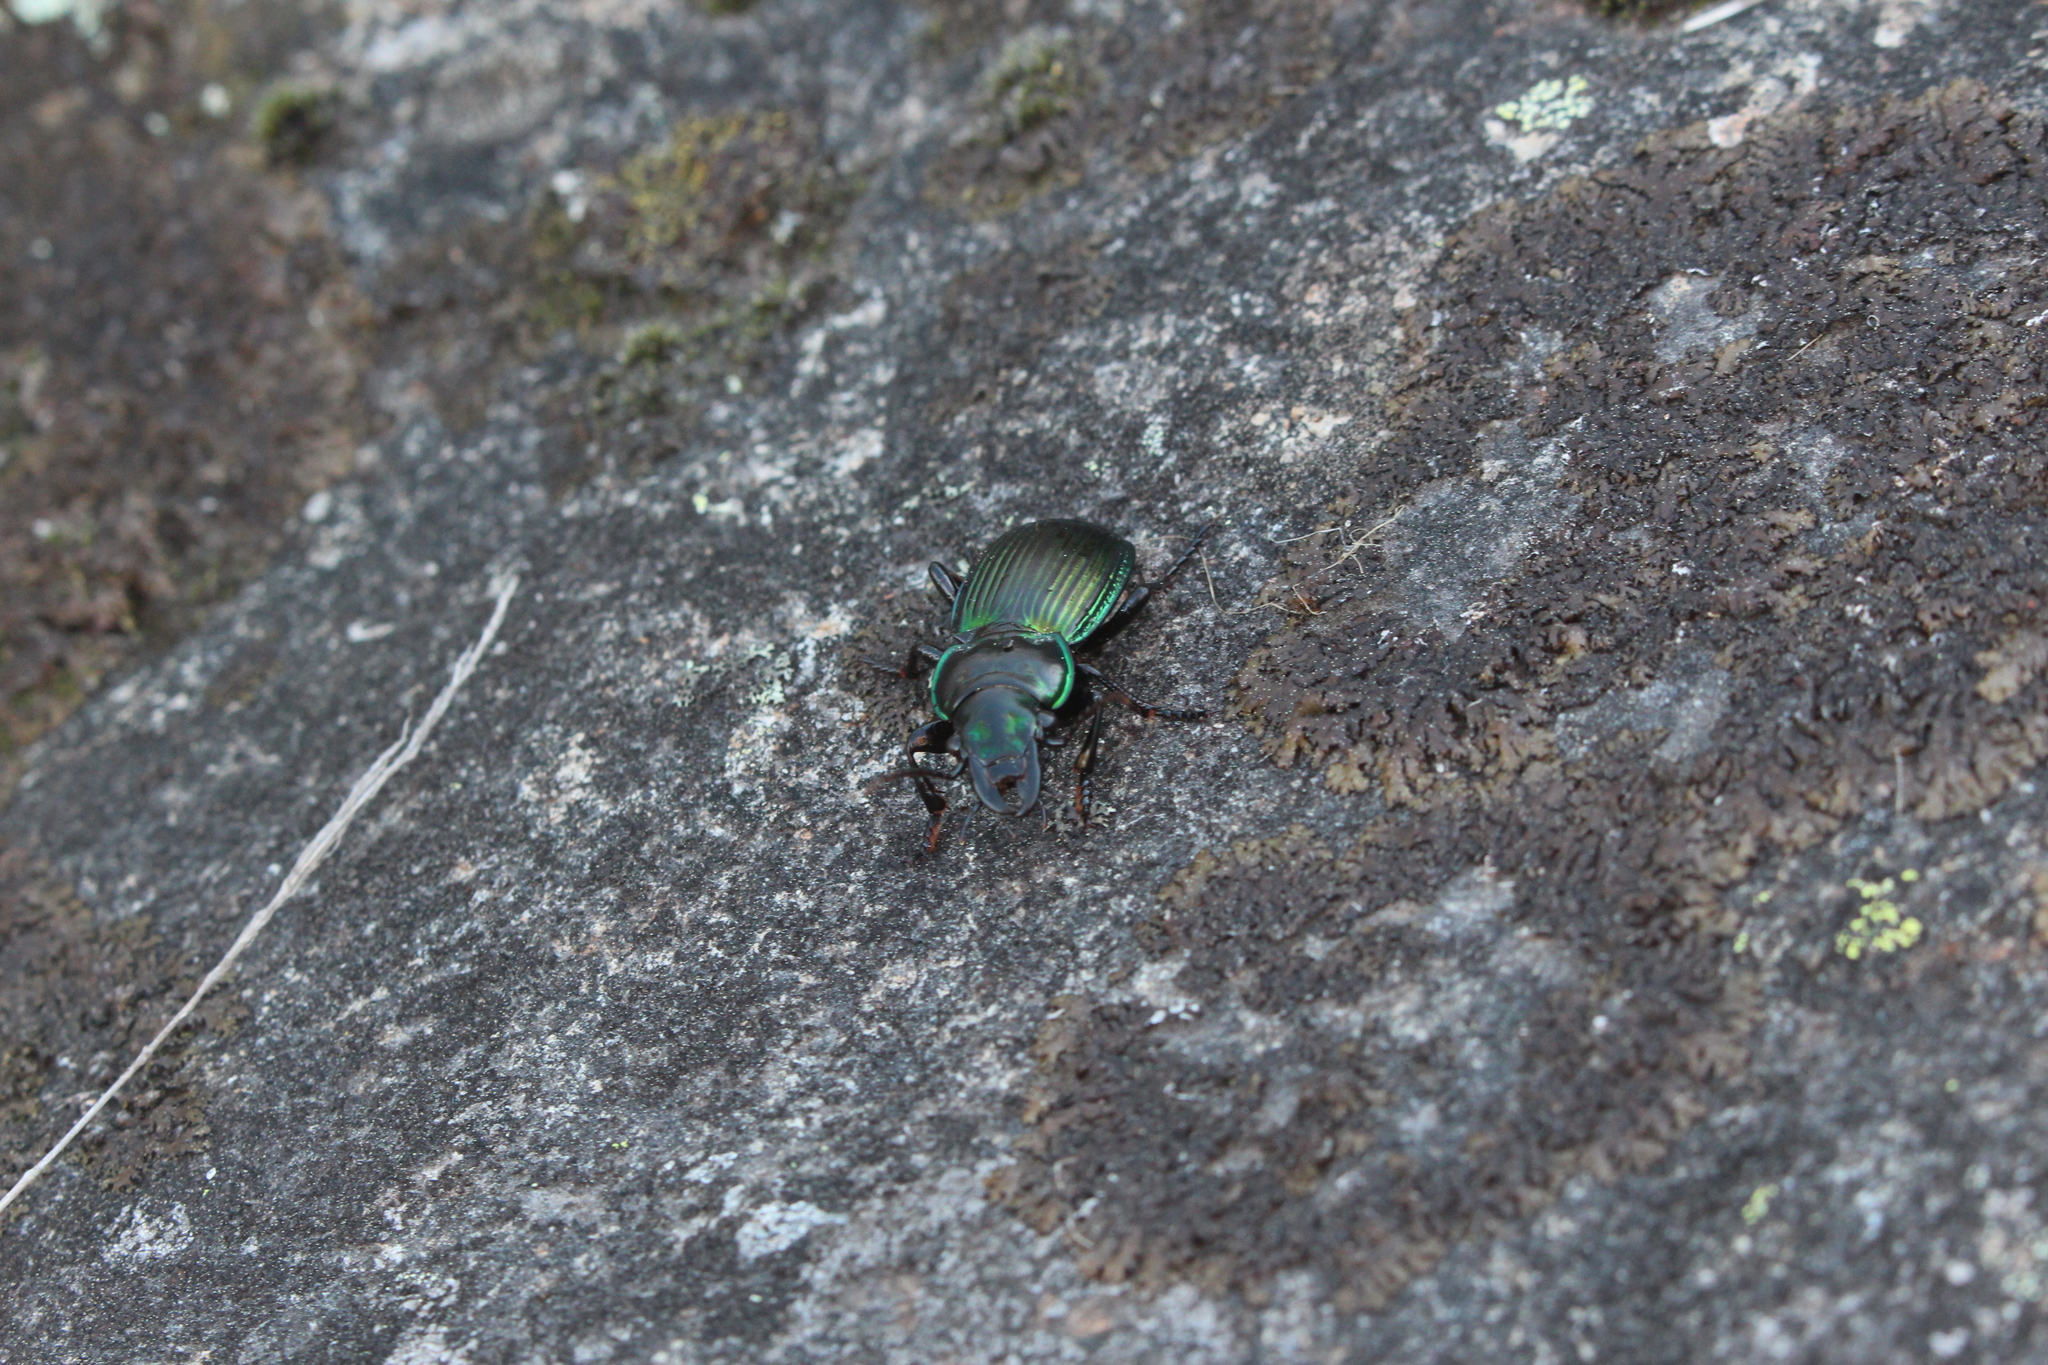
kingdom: Animalia
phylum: Arthropoda
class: Insecta
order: Coleoptera
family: Carabidae
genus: Megadromus
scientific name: Megadromus antarcticus
